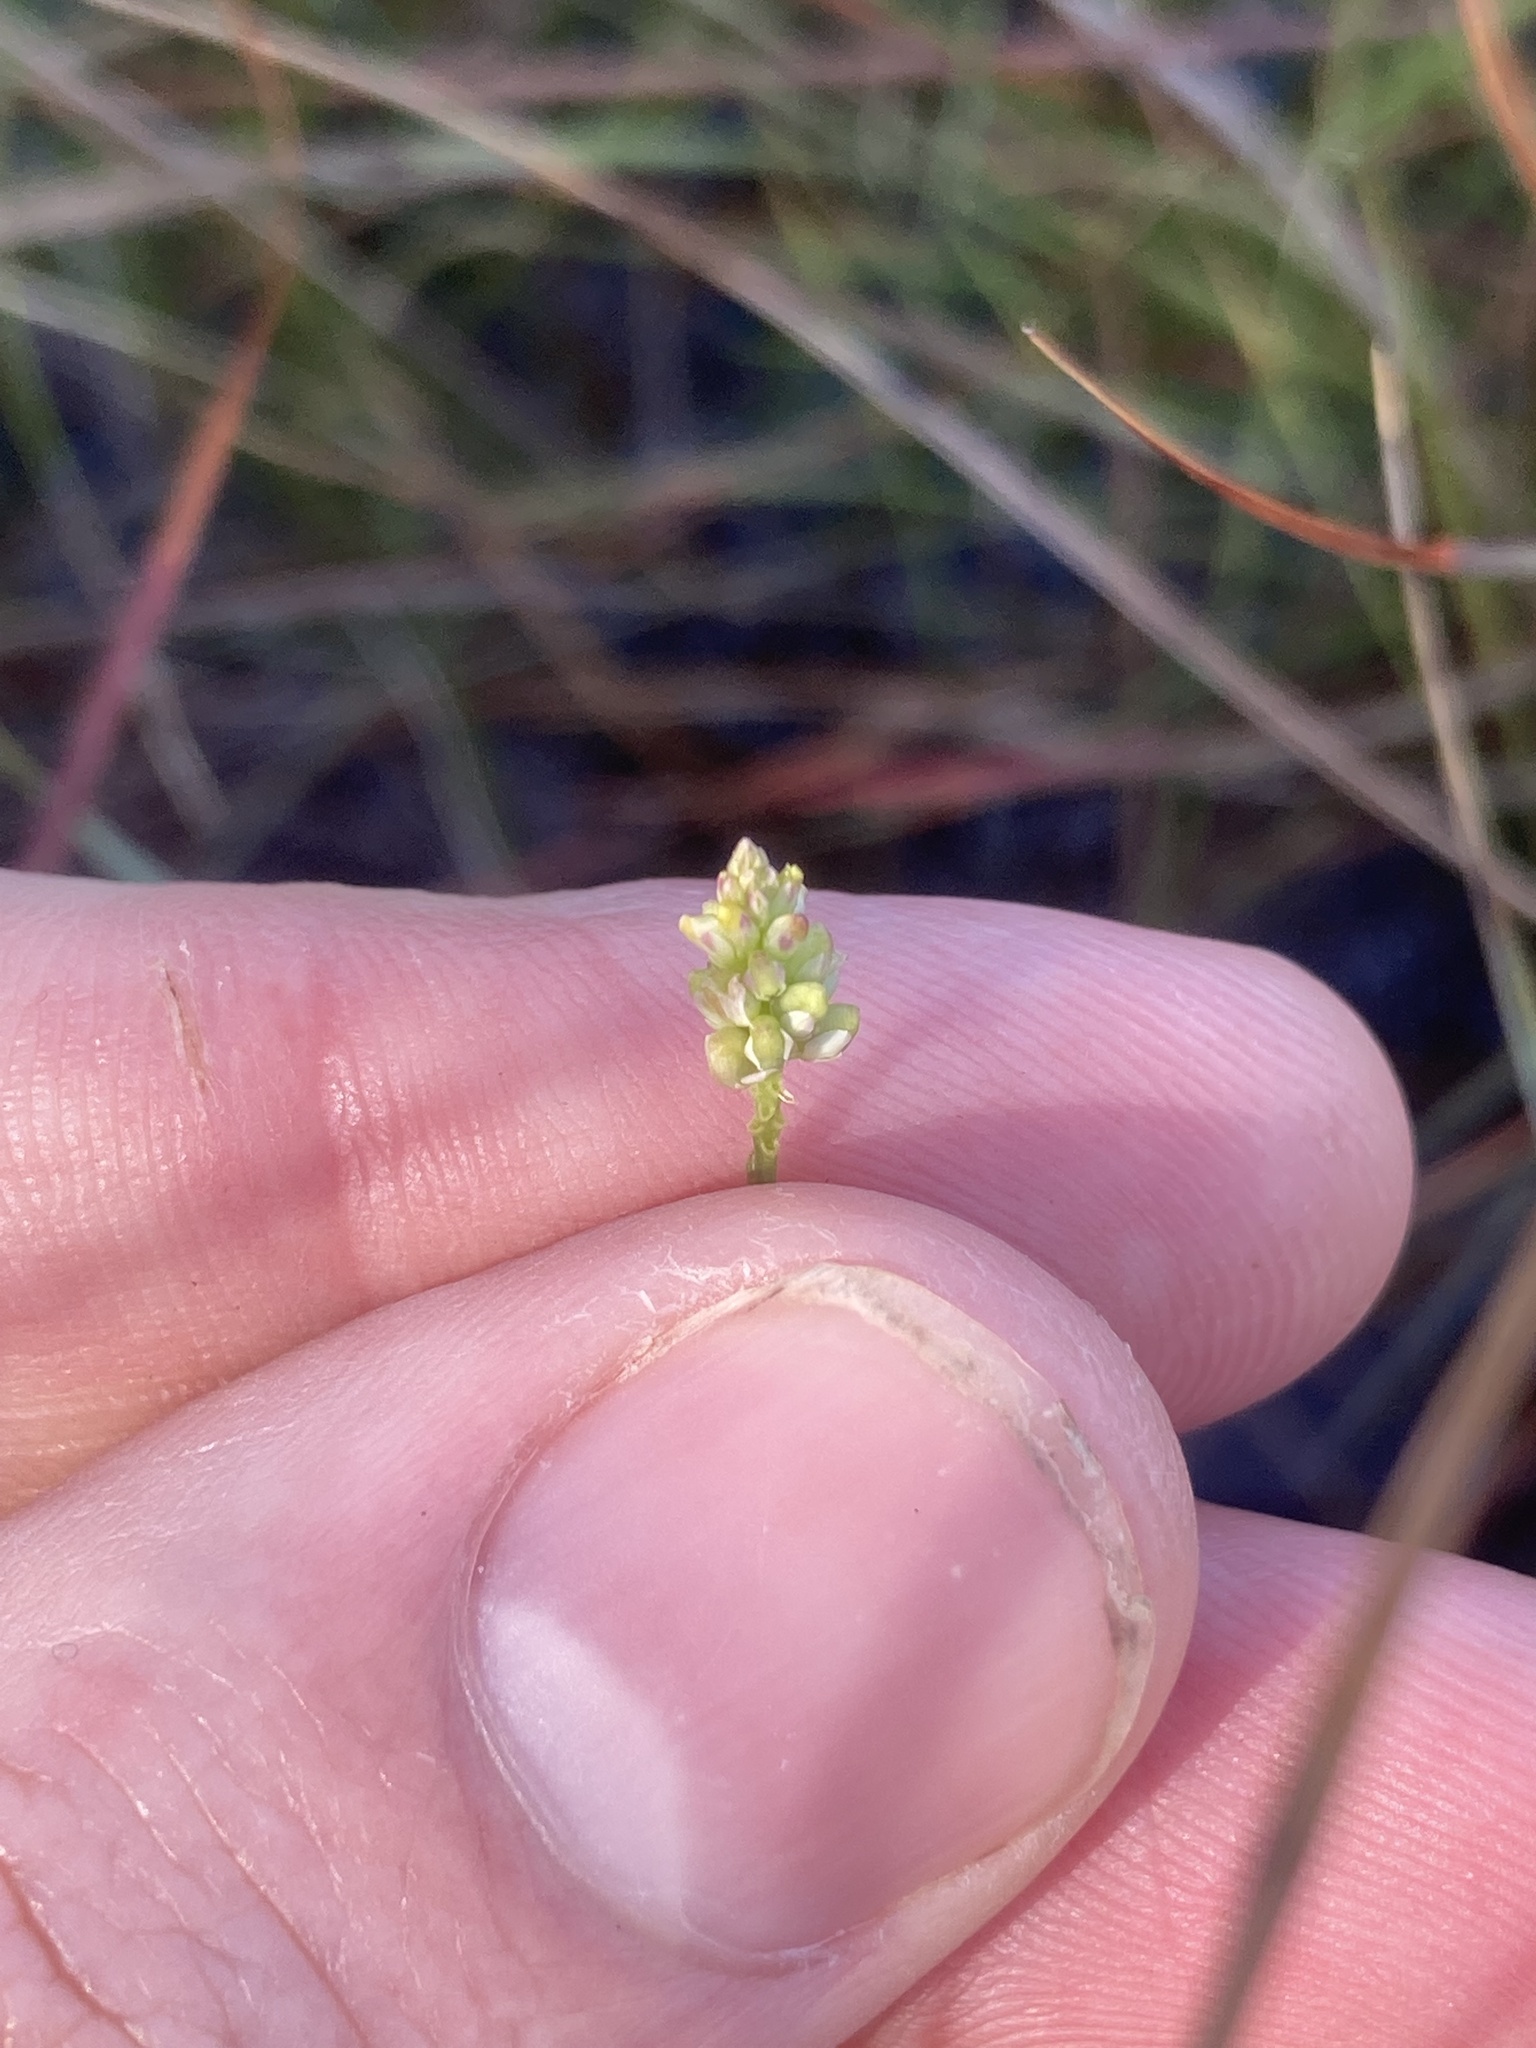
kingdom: Plantae
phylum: Tracheophyta
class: Magnoliopsida
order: Fabales
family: Polygalaceae
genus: Polygala
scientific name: Polygala setacea
